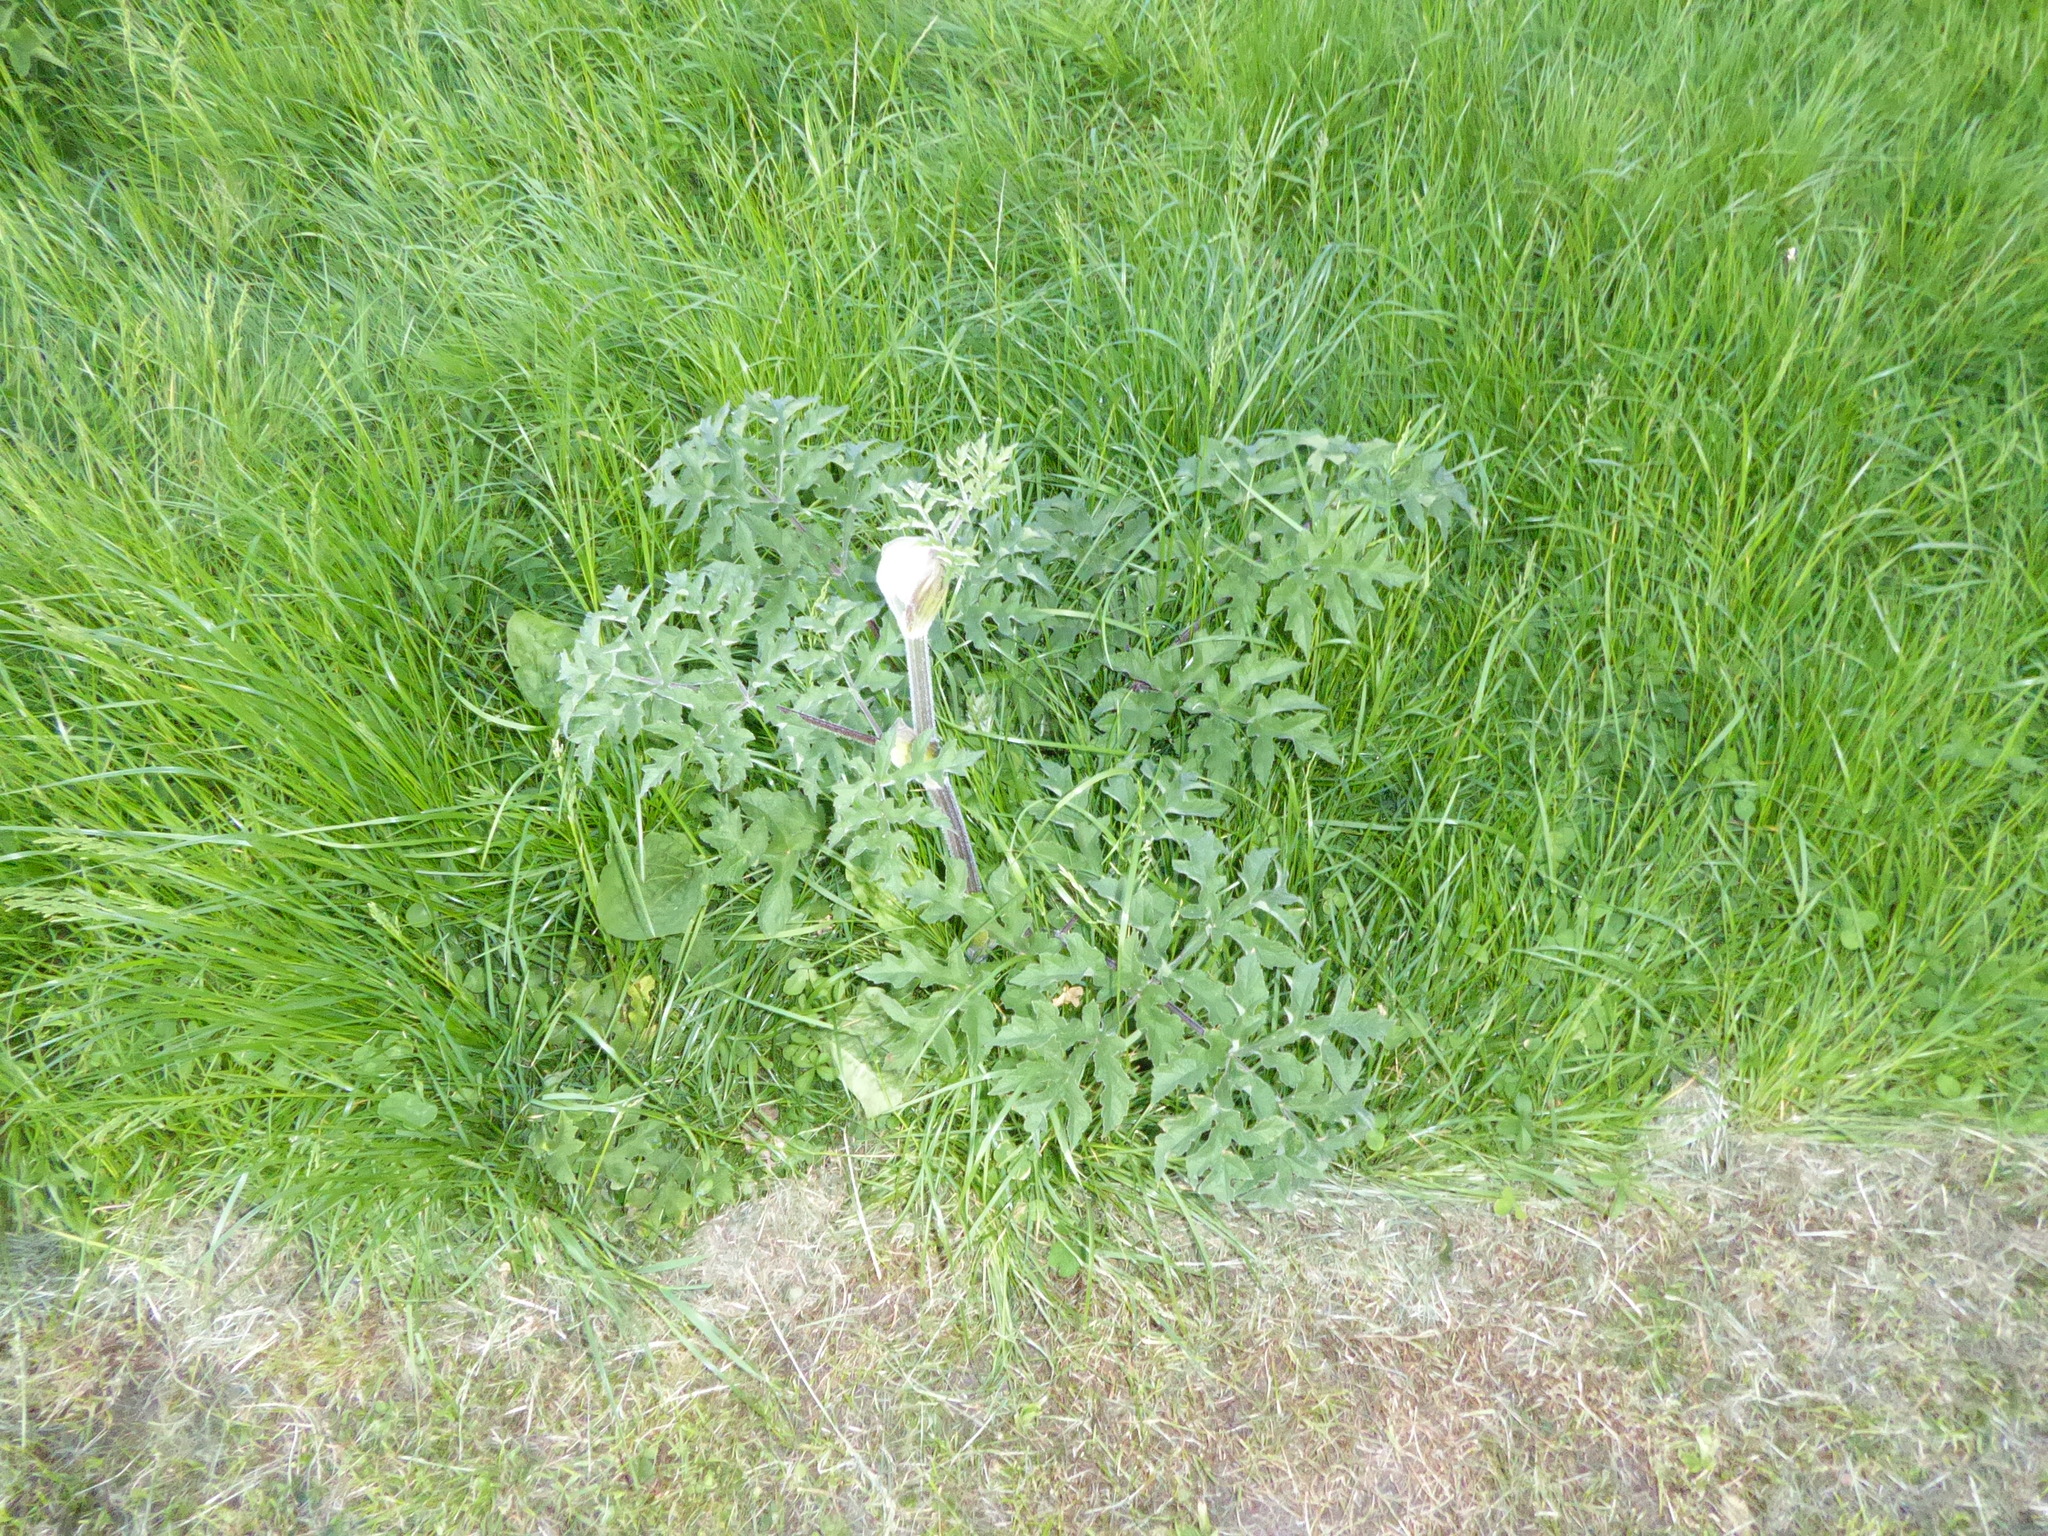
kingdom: Plantae
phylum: Tracheophyta
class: Magnoliopsida
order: Apiales
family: Apiaceae
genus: Heracleum
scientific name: Heracleum sphondylium
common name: Hogweed
